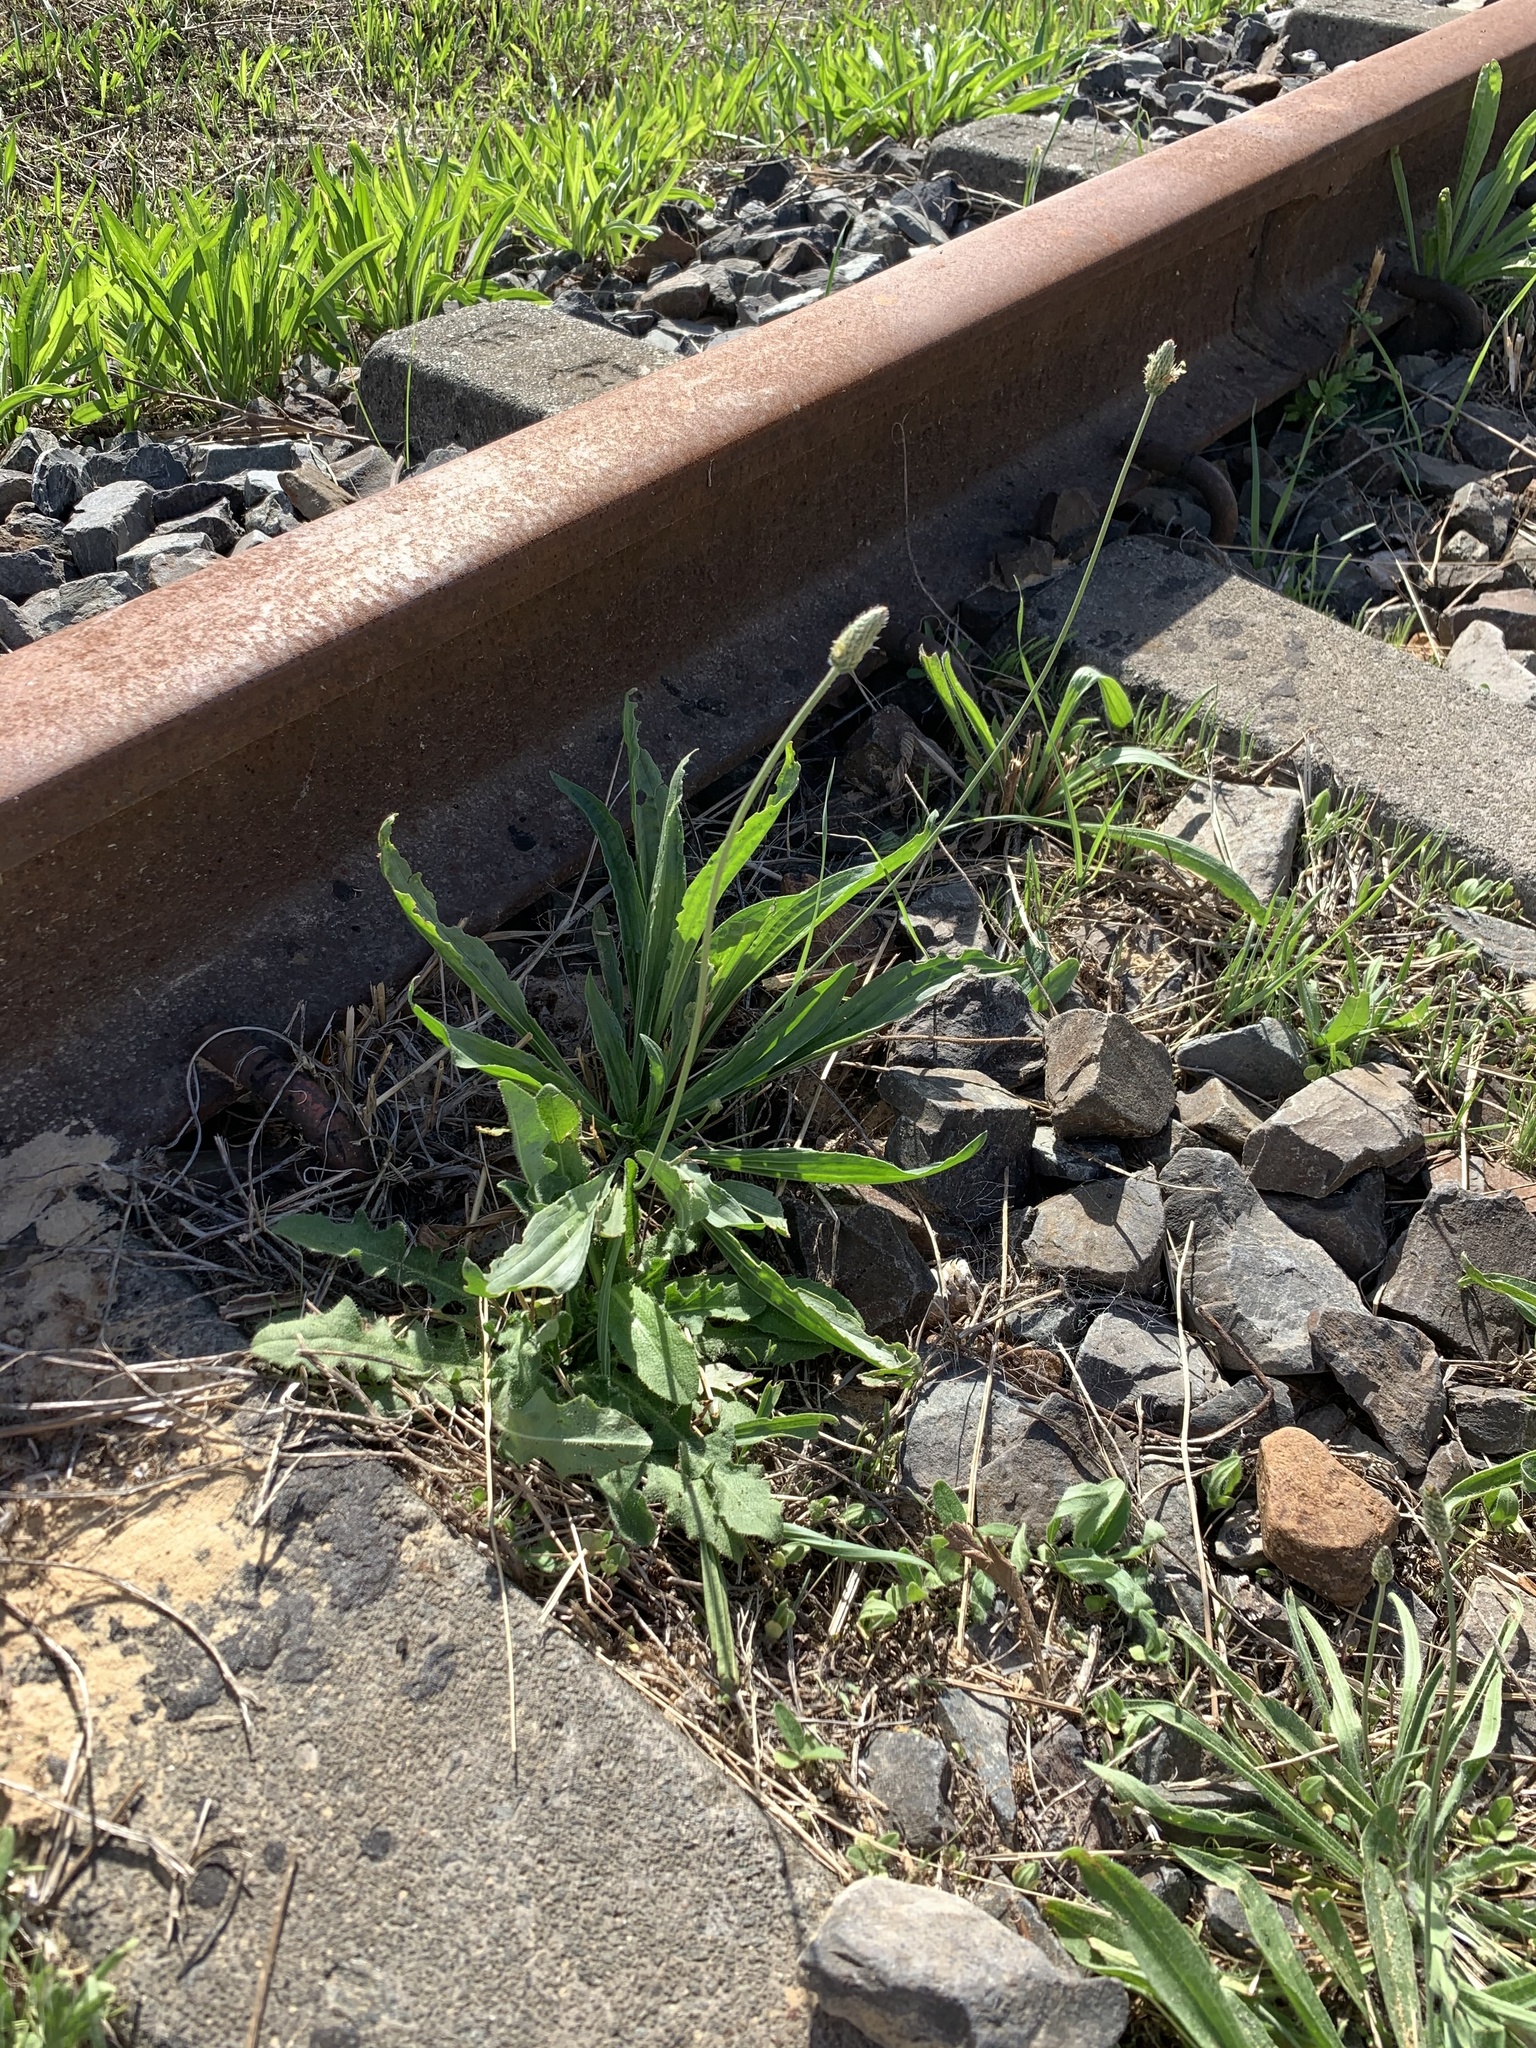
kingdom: Plantae
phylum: Tracheophyta
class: Magnoliopsida
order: Lamiales
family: Plantaginaceae
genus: Plantago
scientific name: Plantago lanceolata
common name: Ribwort plantain
